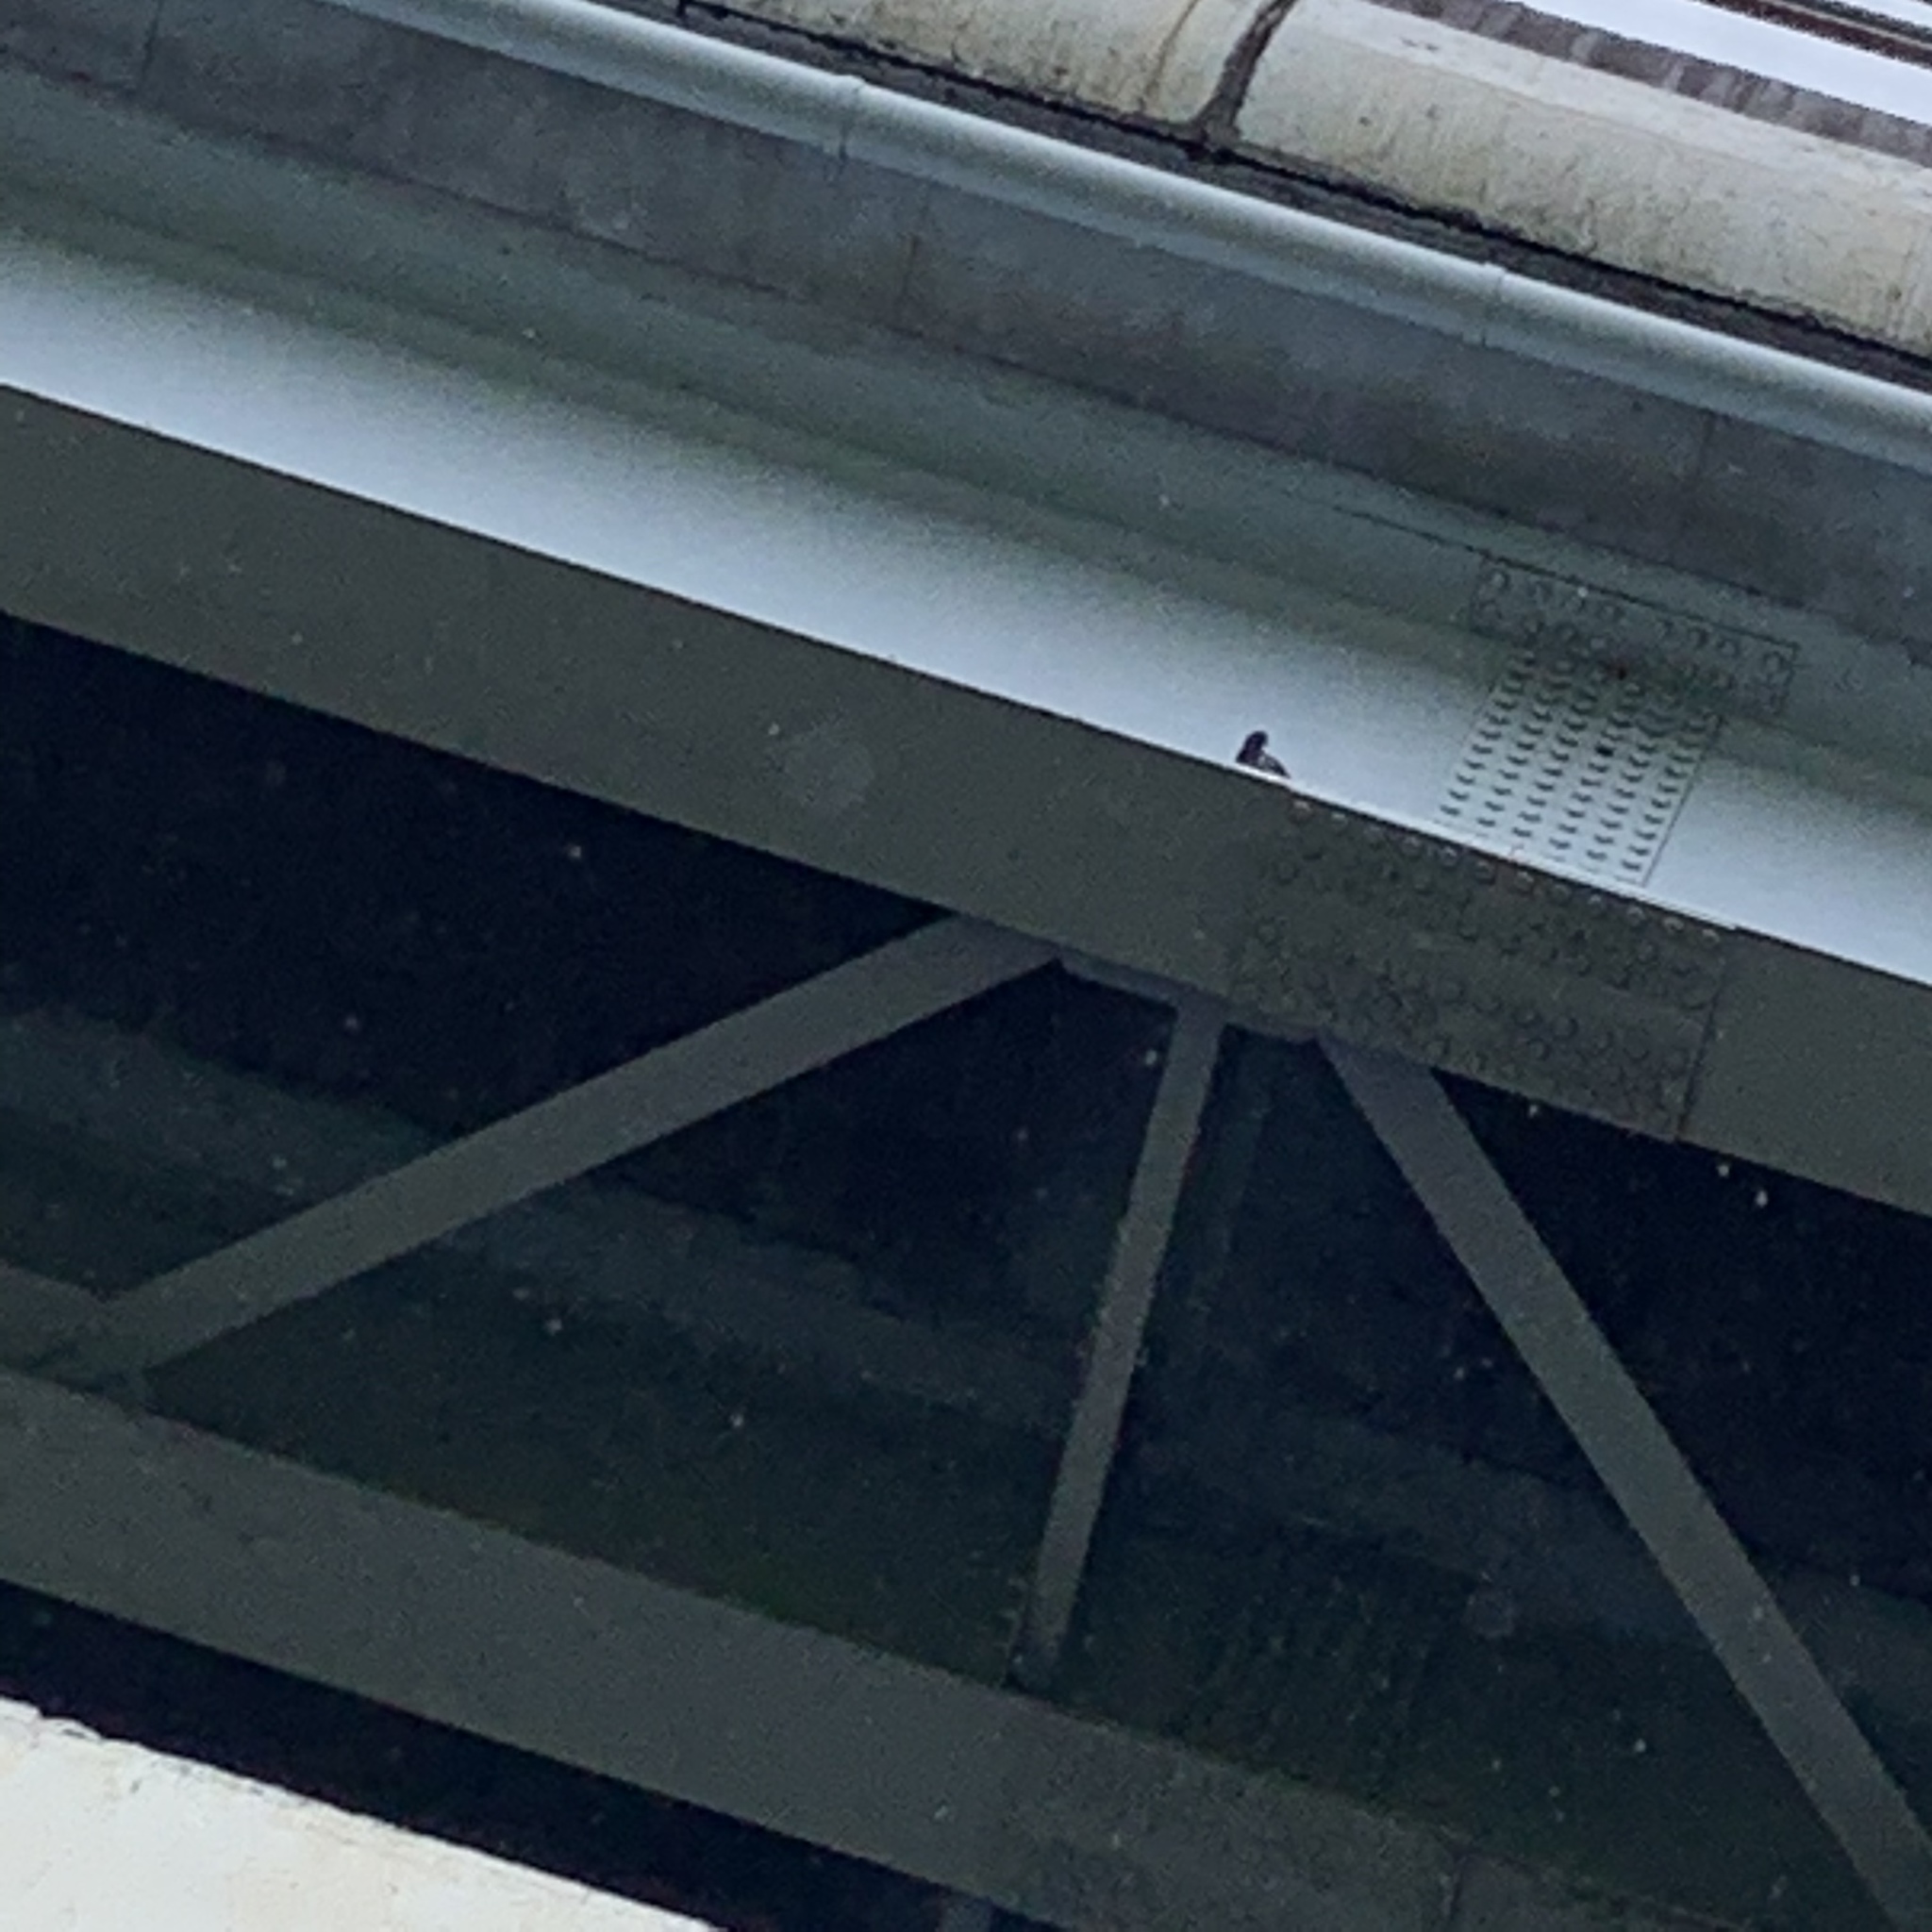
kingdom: Animalia
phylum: Chordata
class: Aves
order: Columbiformes
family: Columbidae
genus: Columba
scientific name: Columba livia
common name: Rock pigeon
